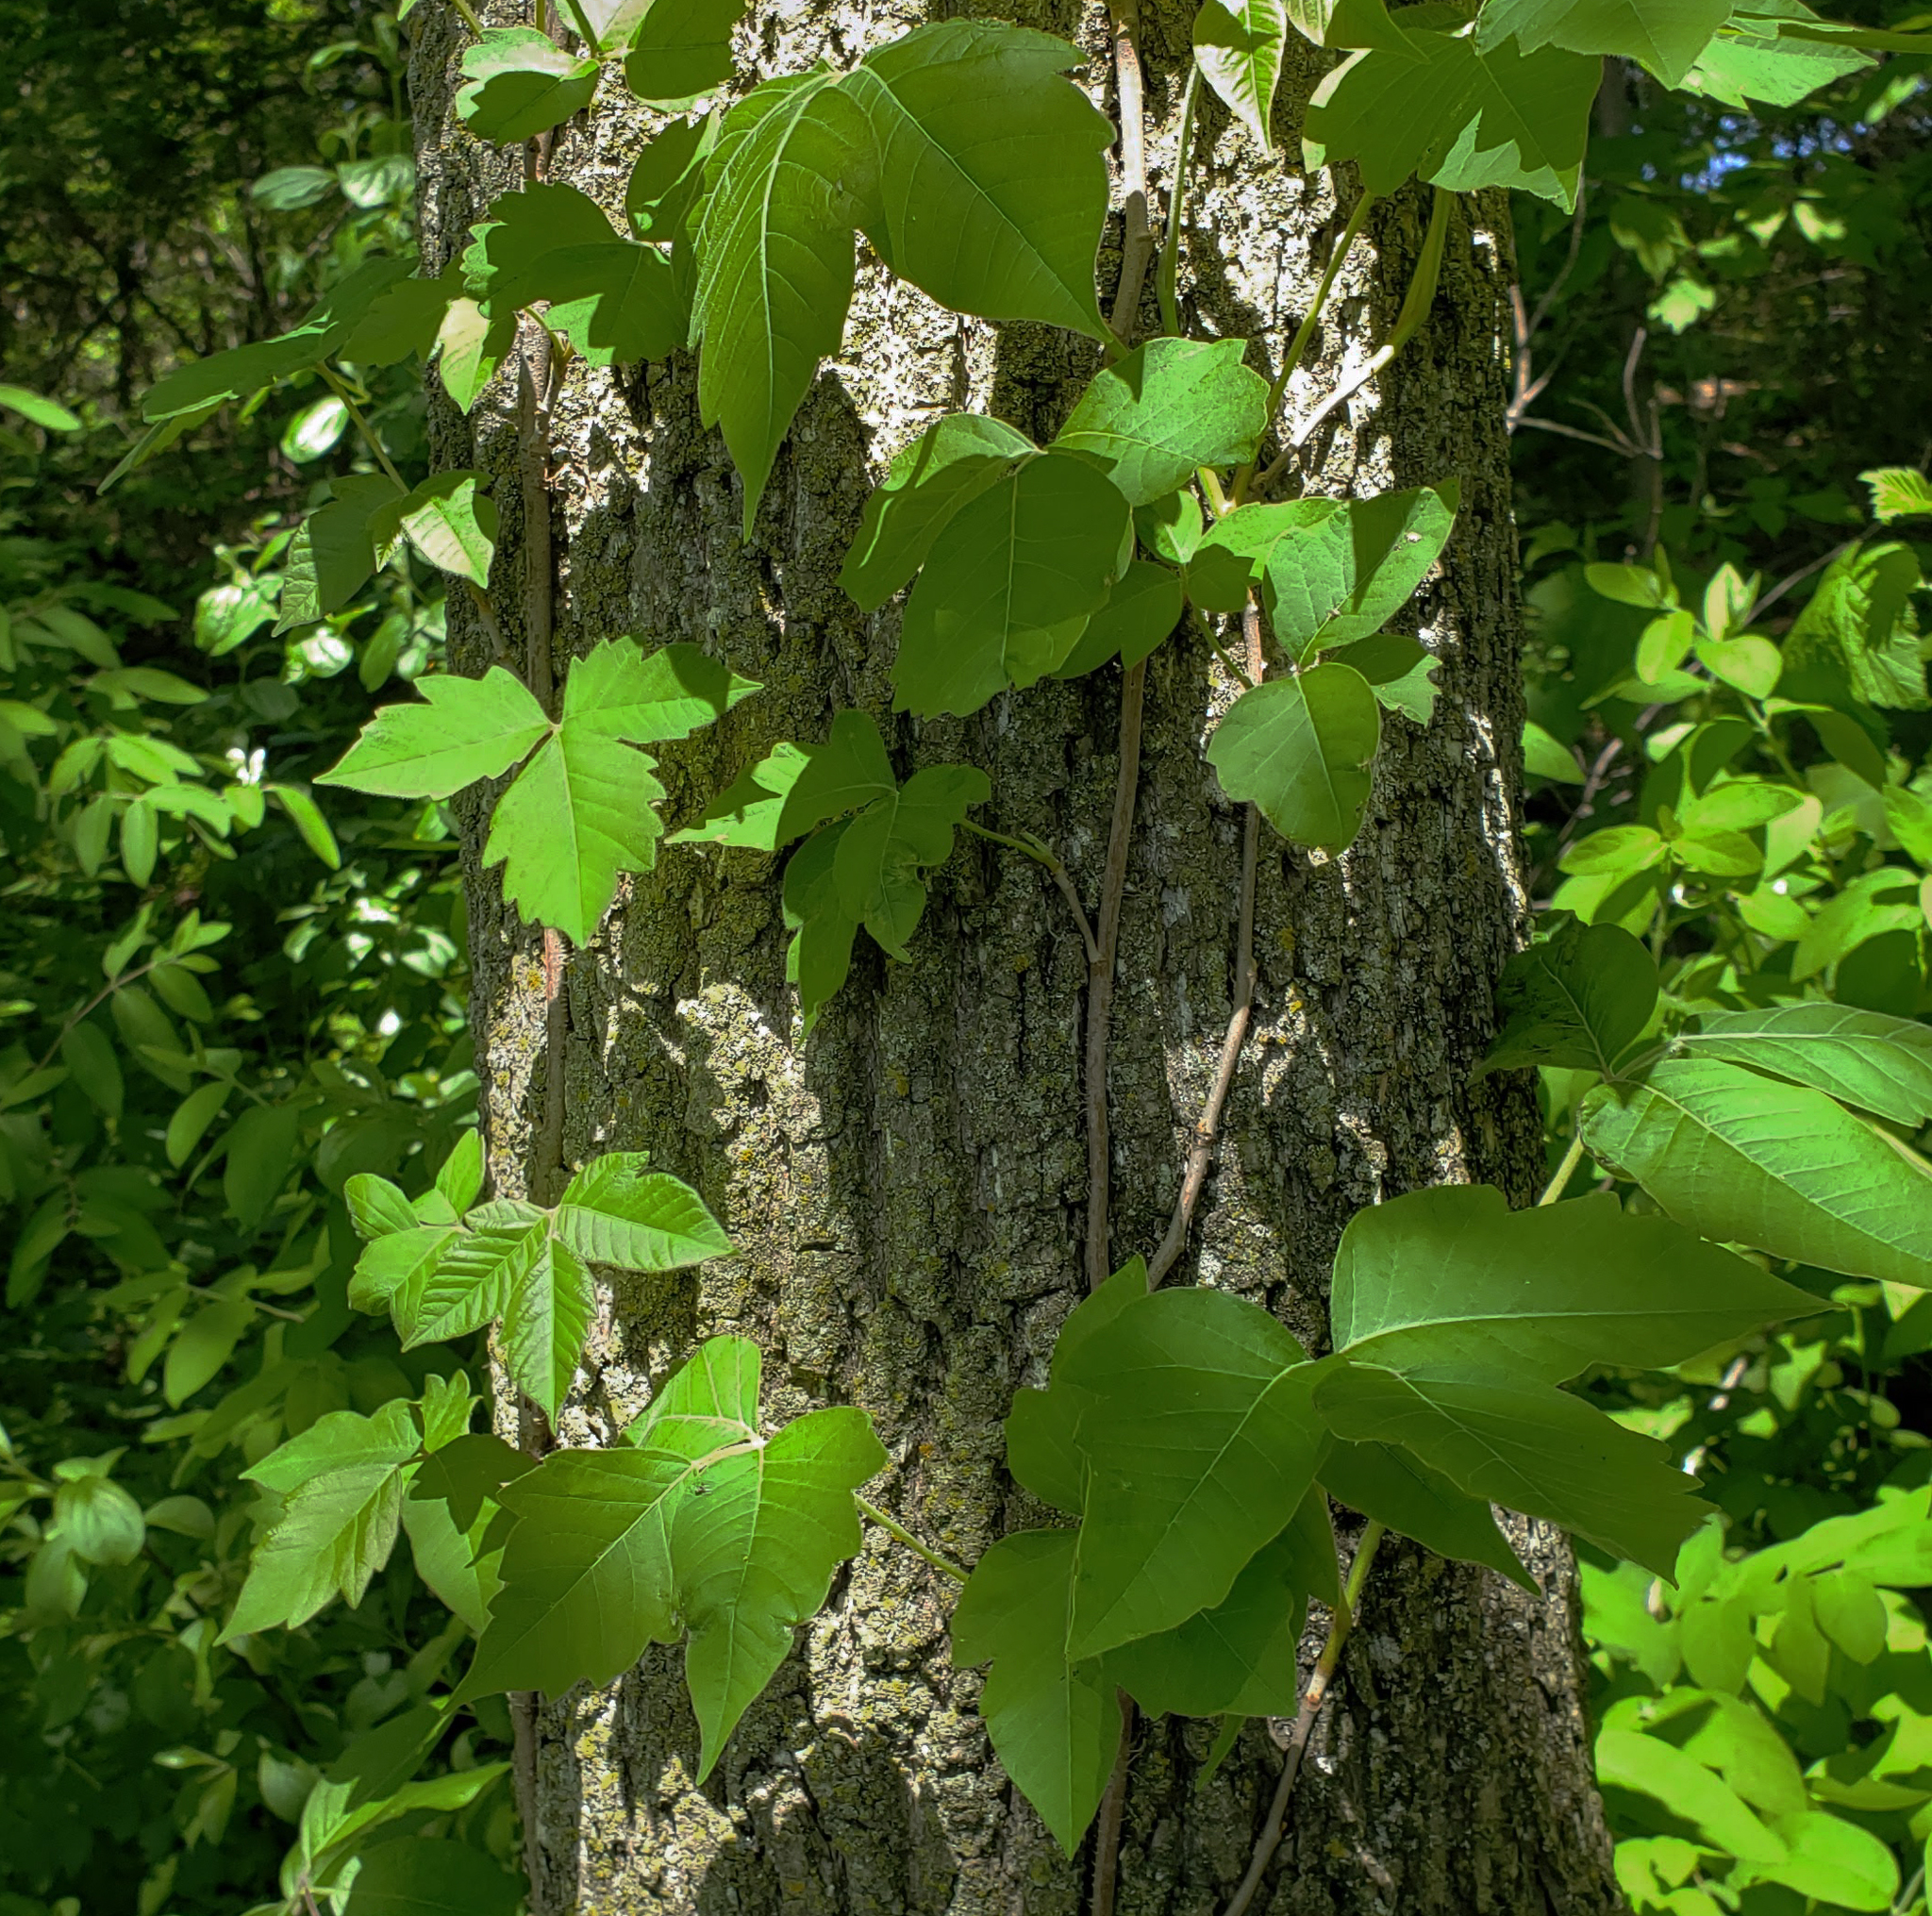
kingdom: Plantae
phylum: Tracheophyta
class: Magnoliopsida
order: Sapindales
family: Anacardiaceae
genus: Toxicodendron
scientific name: Toxicodendron radicans
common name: Poison ivy
